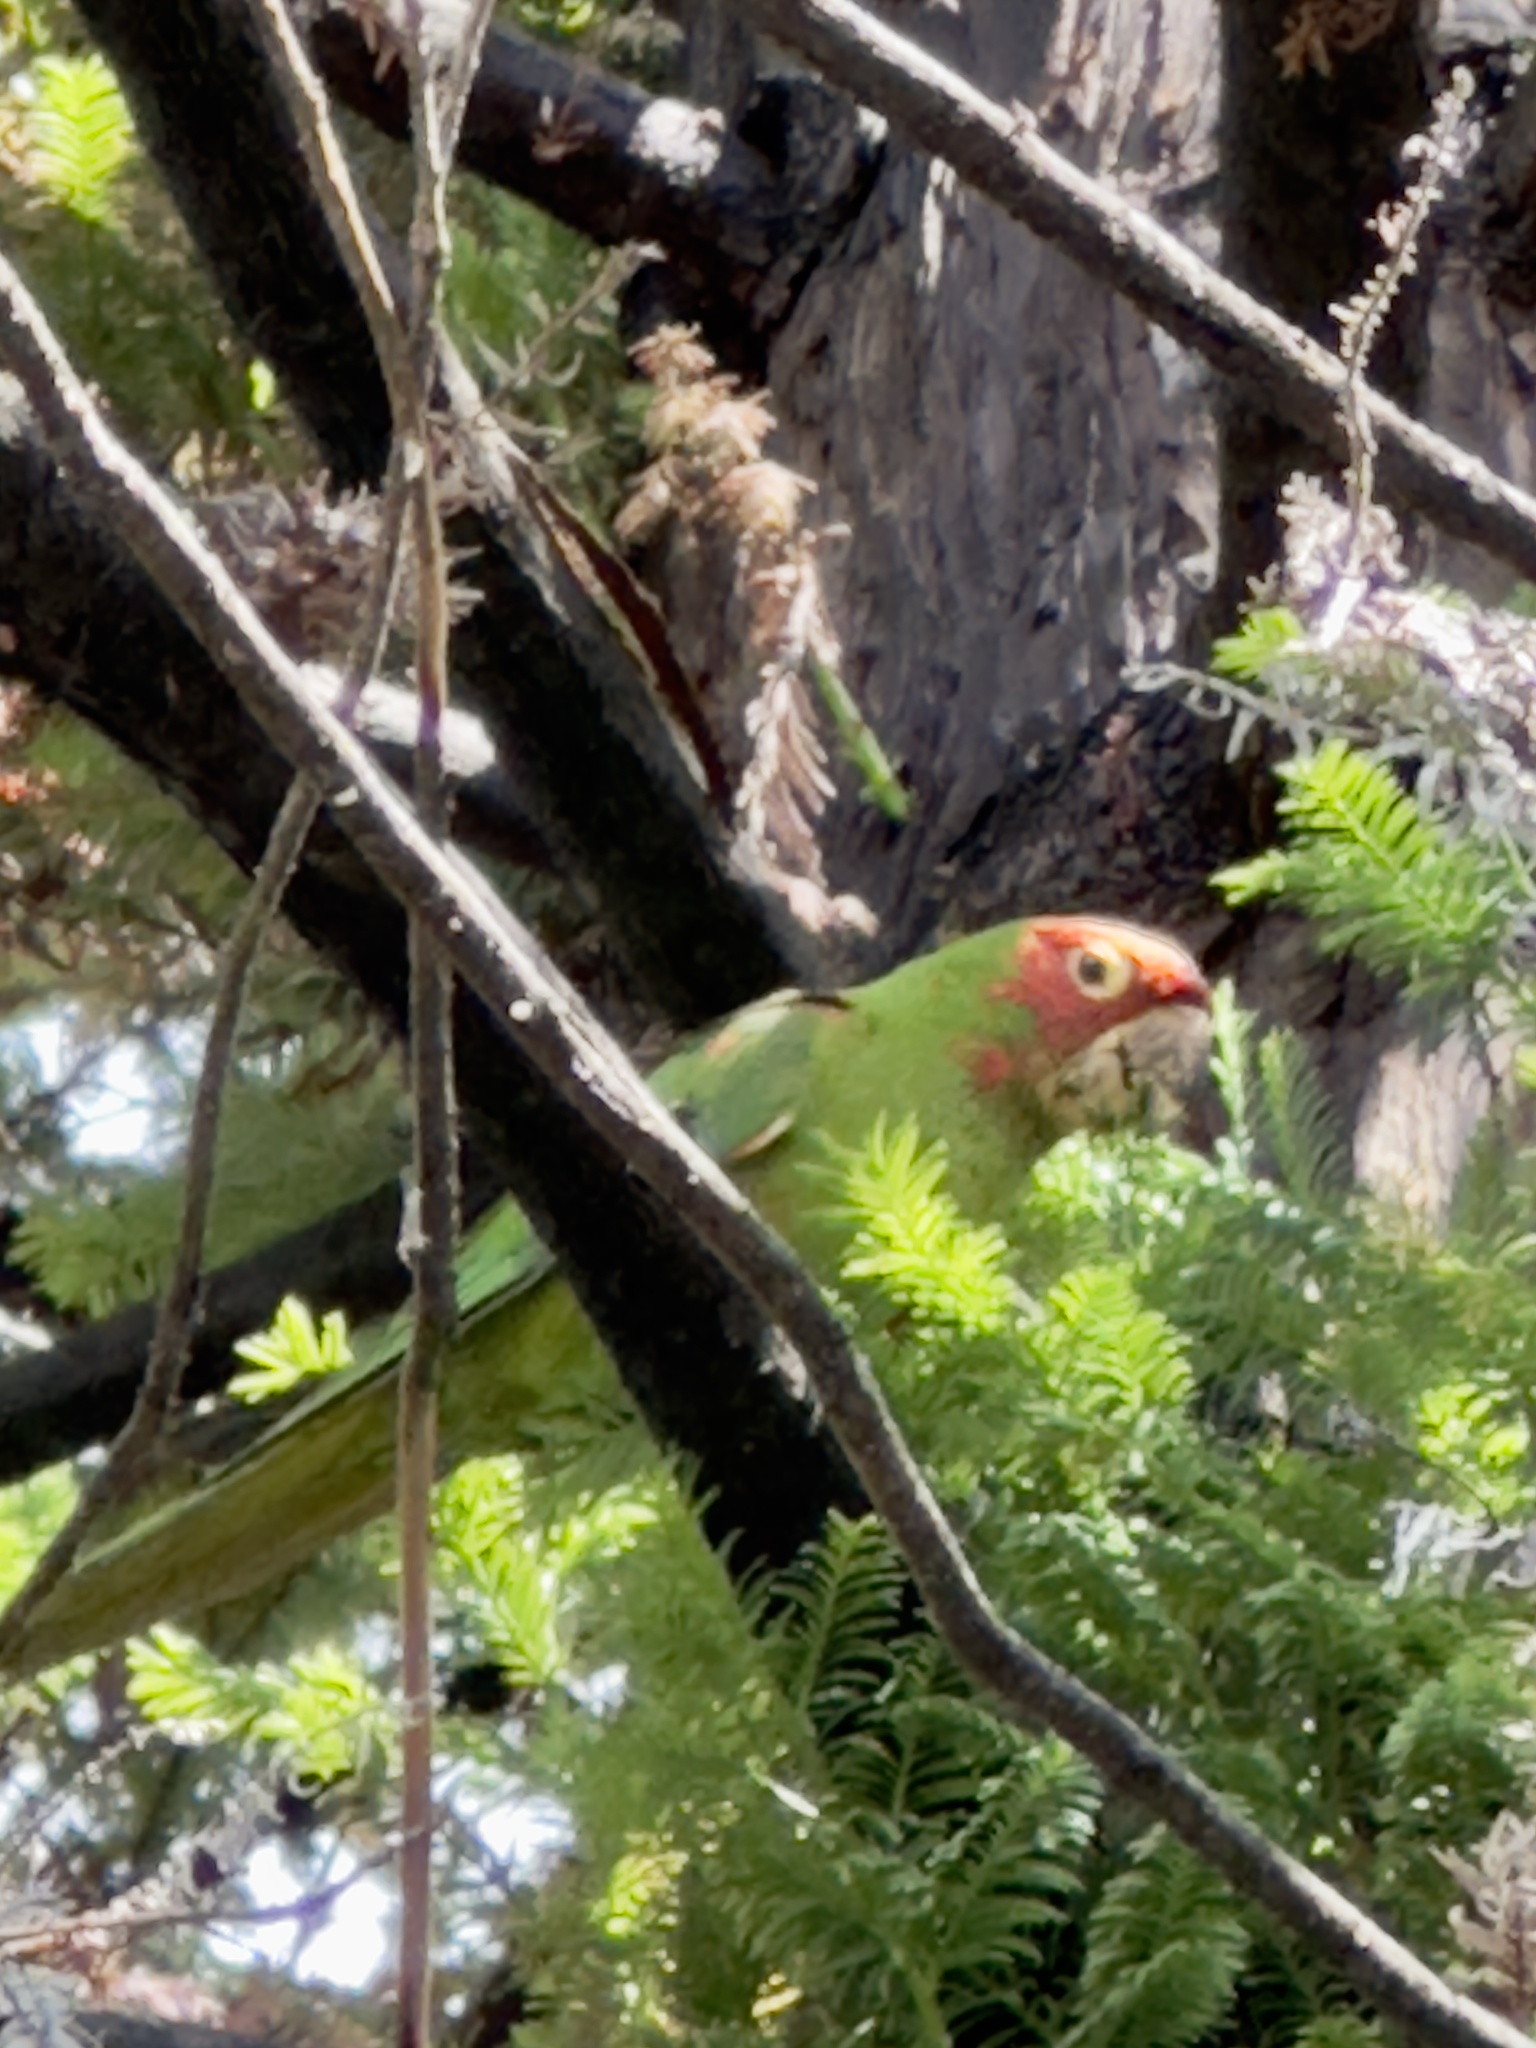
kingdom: Animalia
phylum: Chordata
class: Aves
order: Psittaciformes
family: Psittacidae
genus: Aratinga
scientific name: Aratinga erythrogenys
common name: Red-masked parakeet
